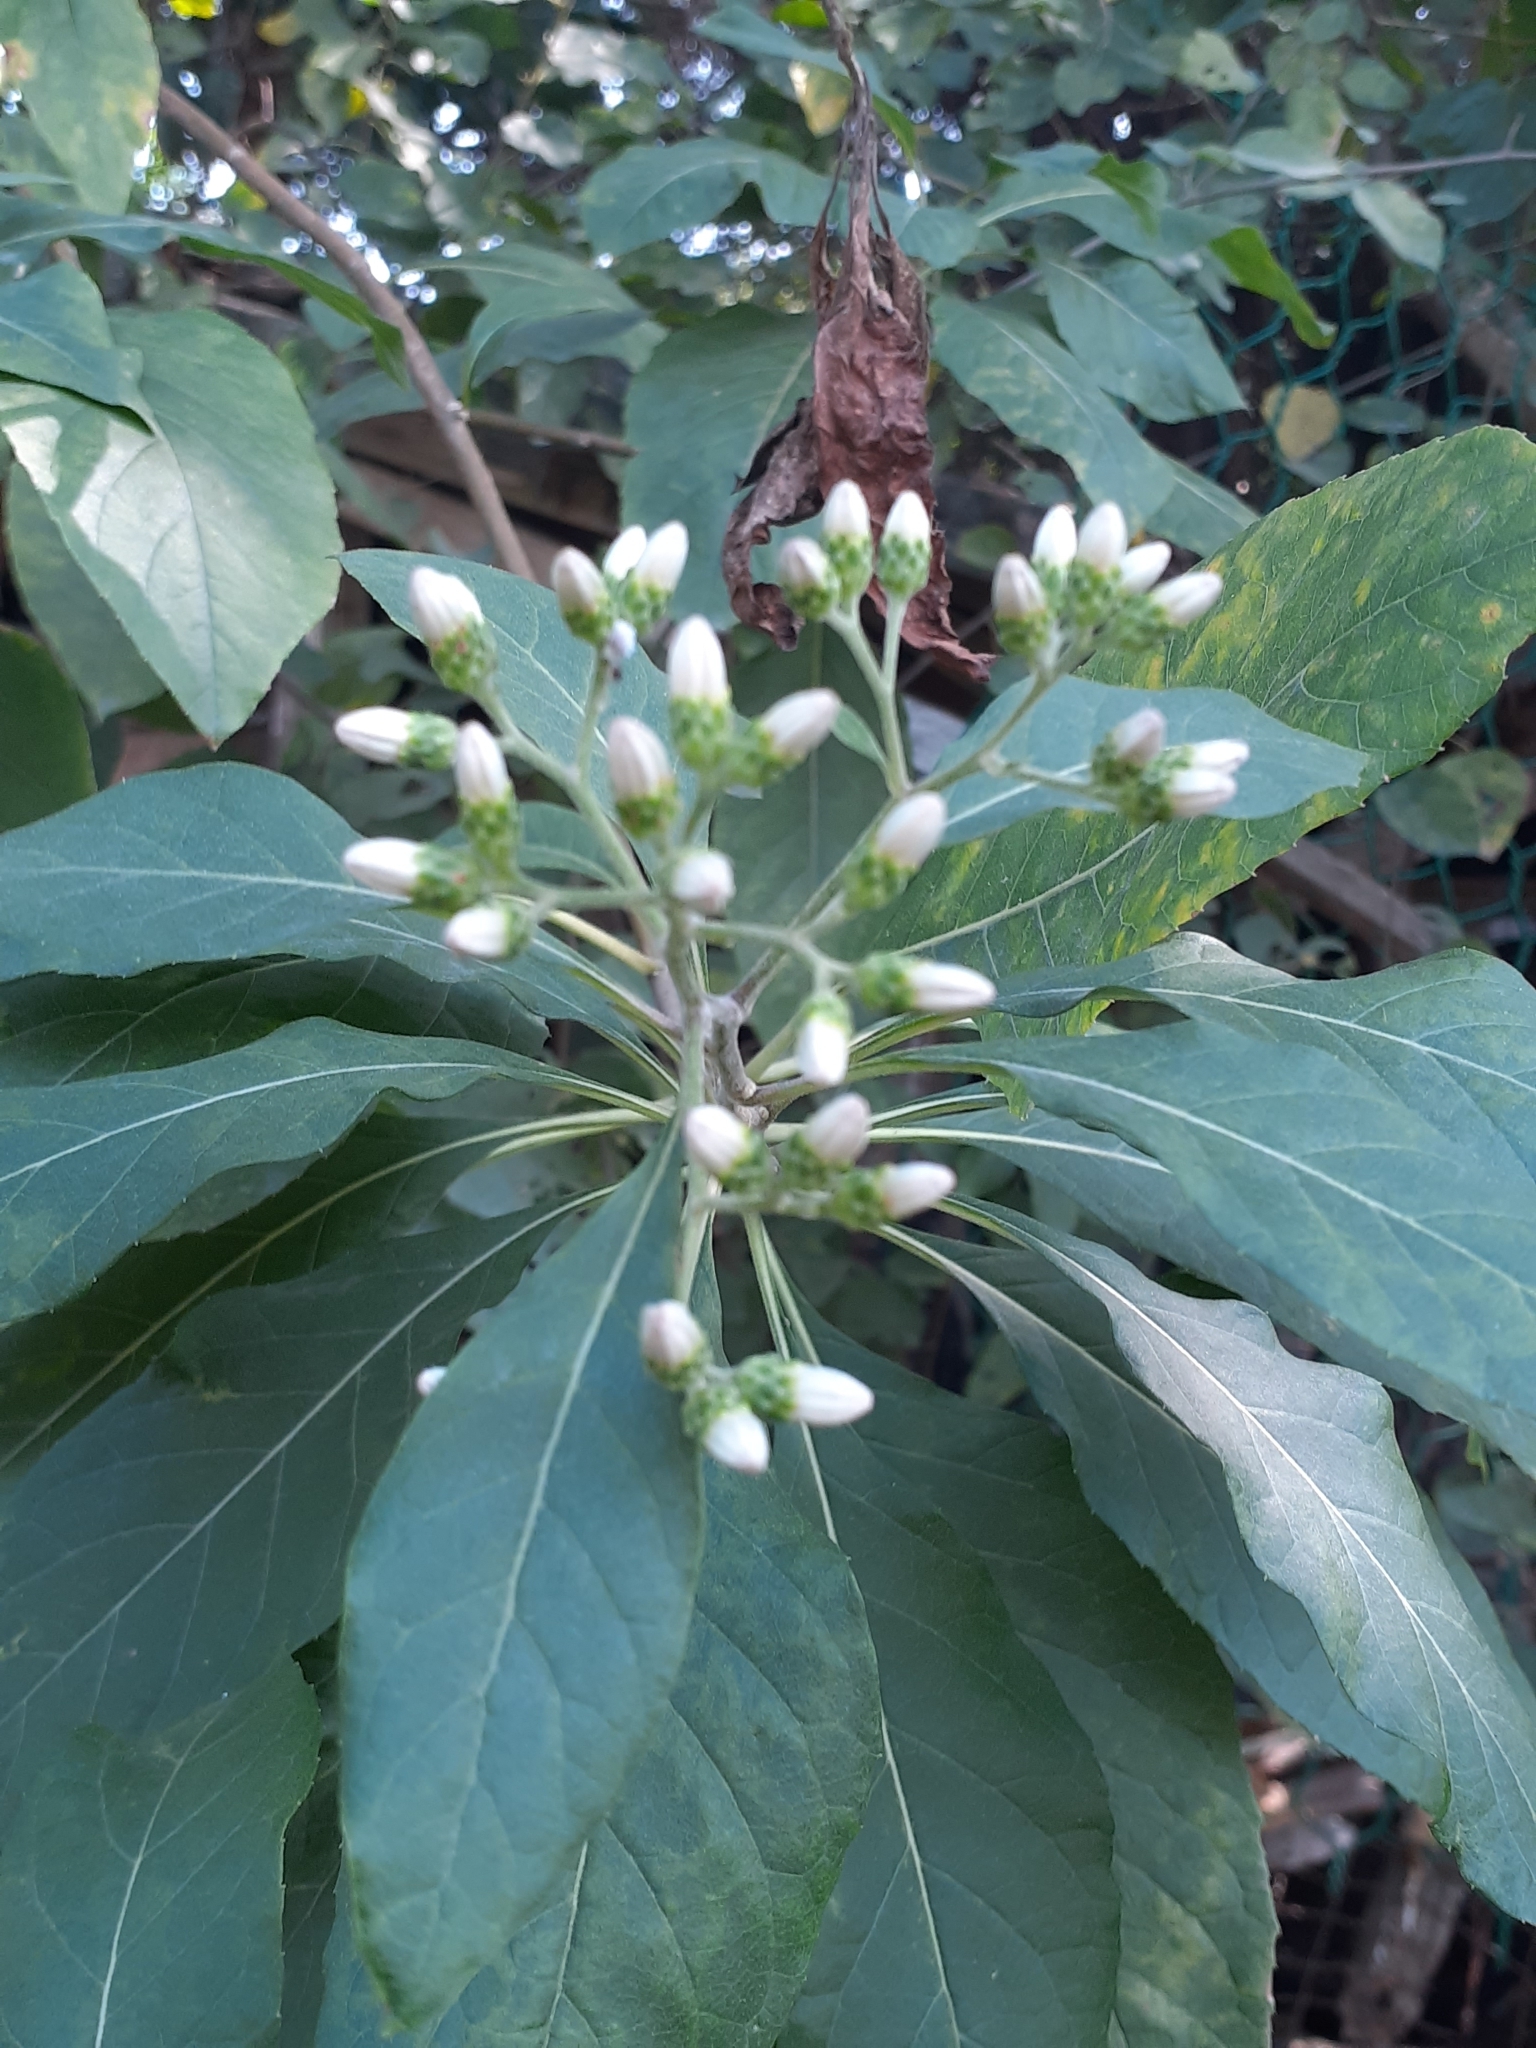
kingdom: Plantae
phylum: Tracheophyta
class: Magnoliopsida
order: Asterales
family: Asteraceae
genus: Gymnanthemum
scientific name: Gymnanthemum amygdalinum
